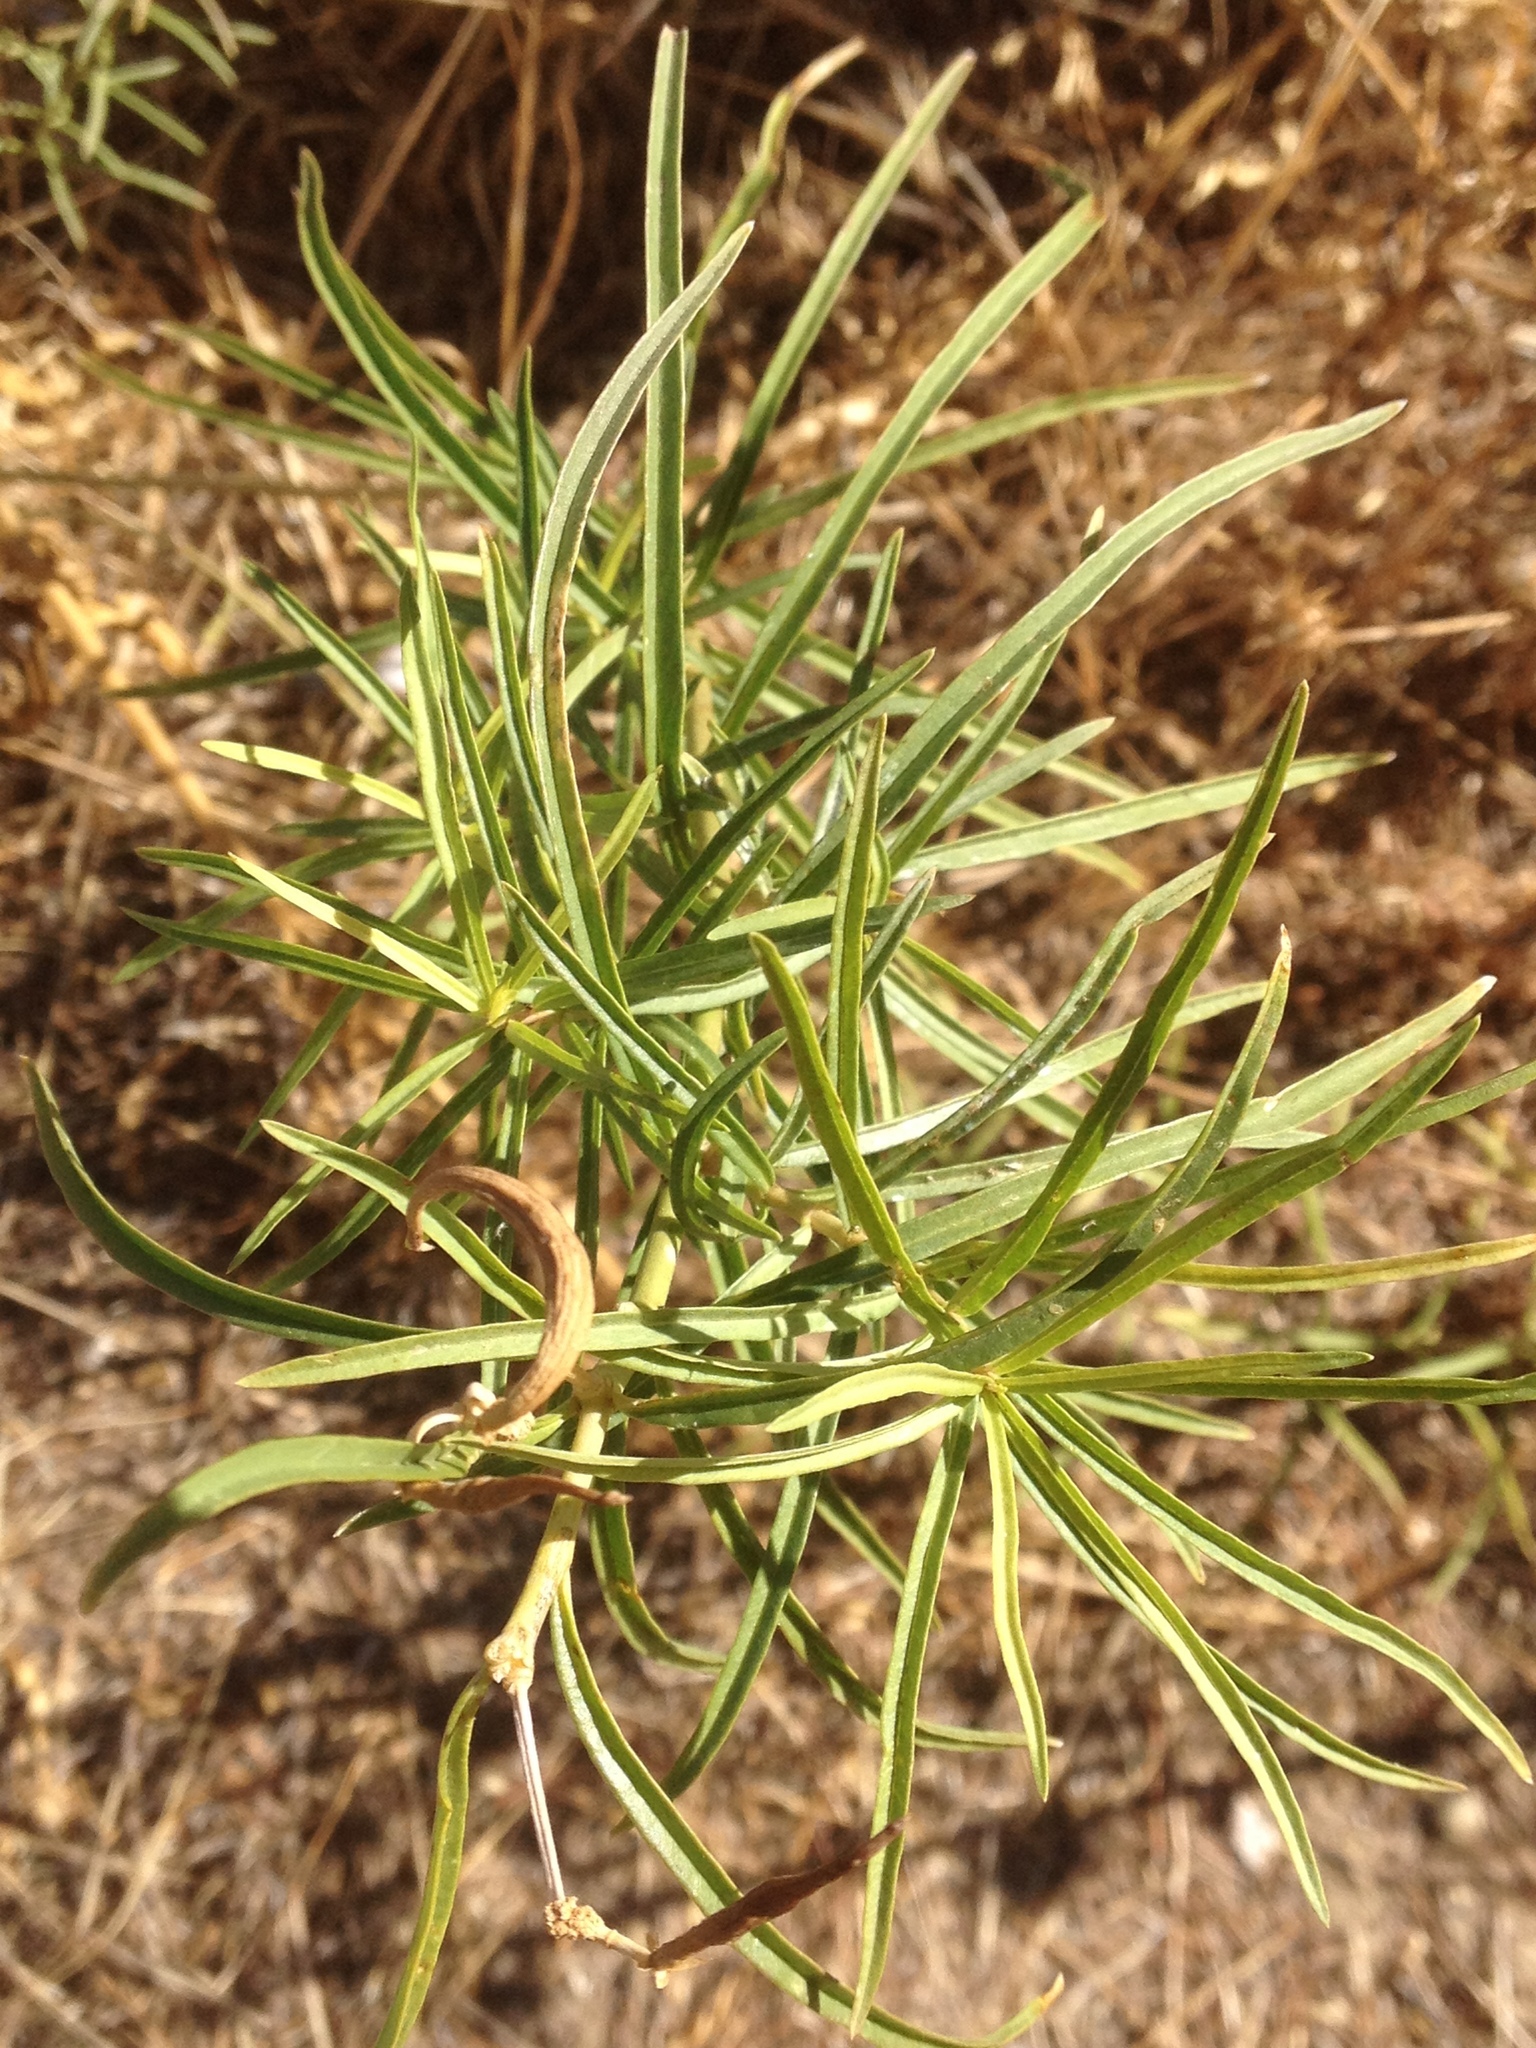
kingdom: Plantae
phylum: Tracheophyta
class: Magnoliopsida
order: Gentianales
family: Apocynaceae
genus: Asclepias
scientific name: Asclepias fascicularis
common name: Mexican milkweed
